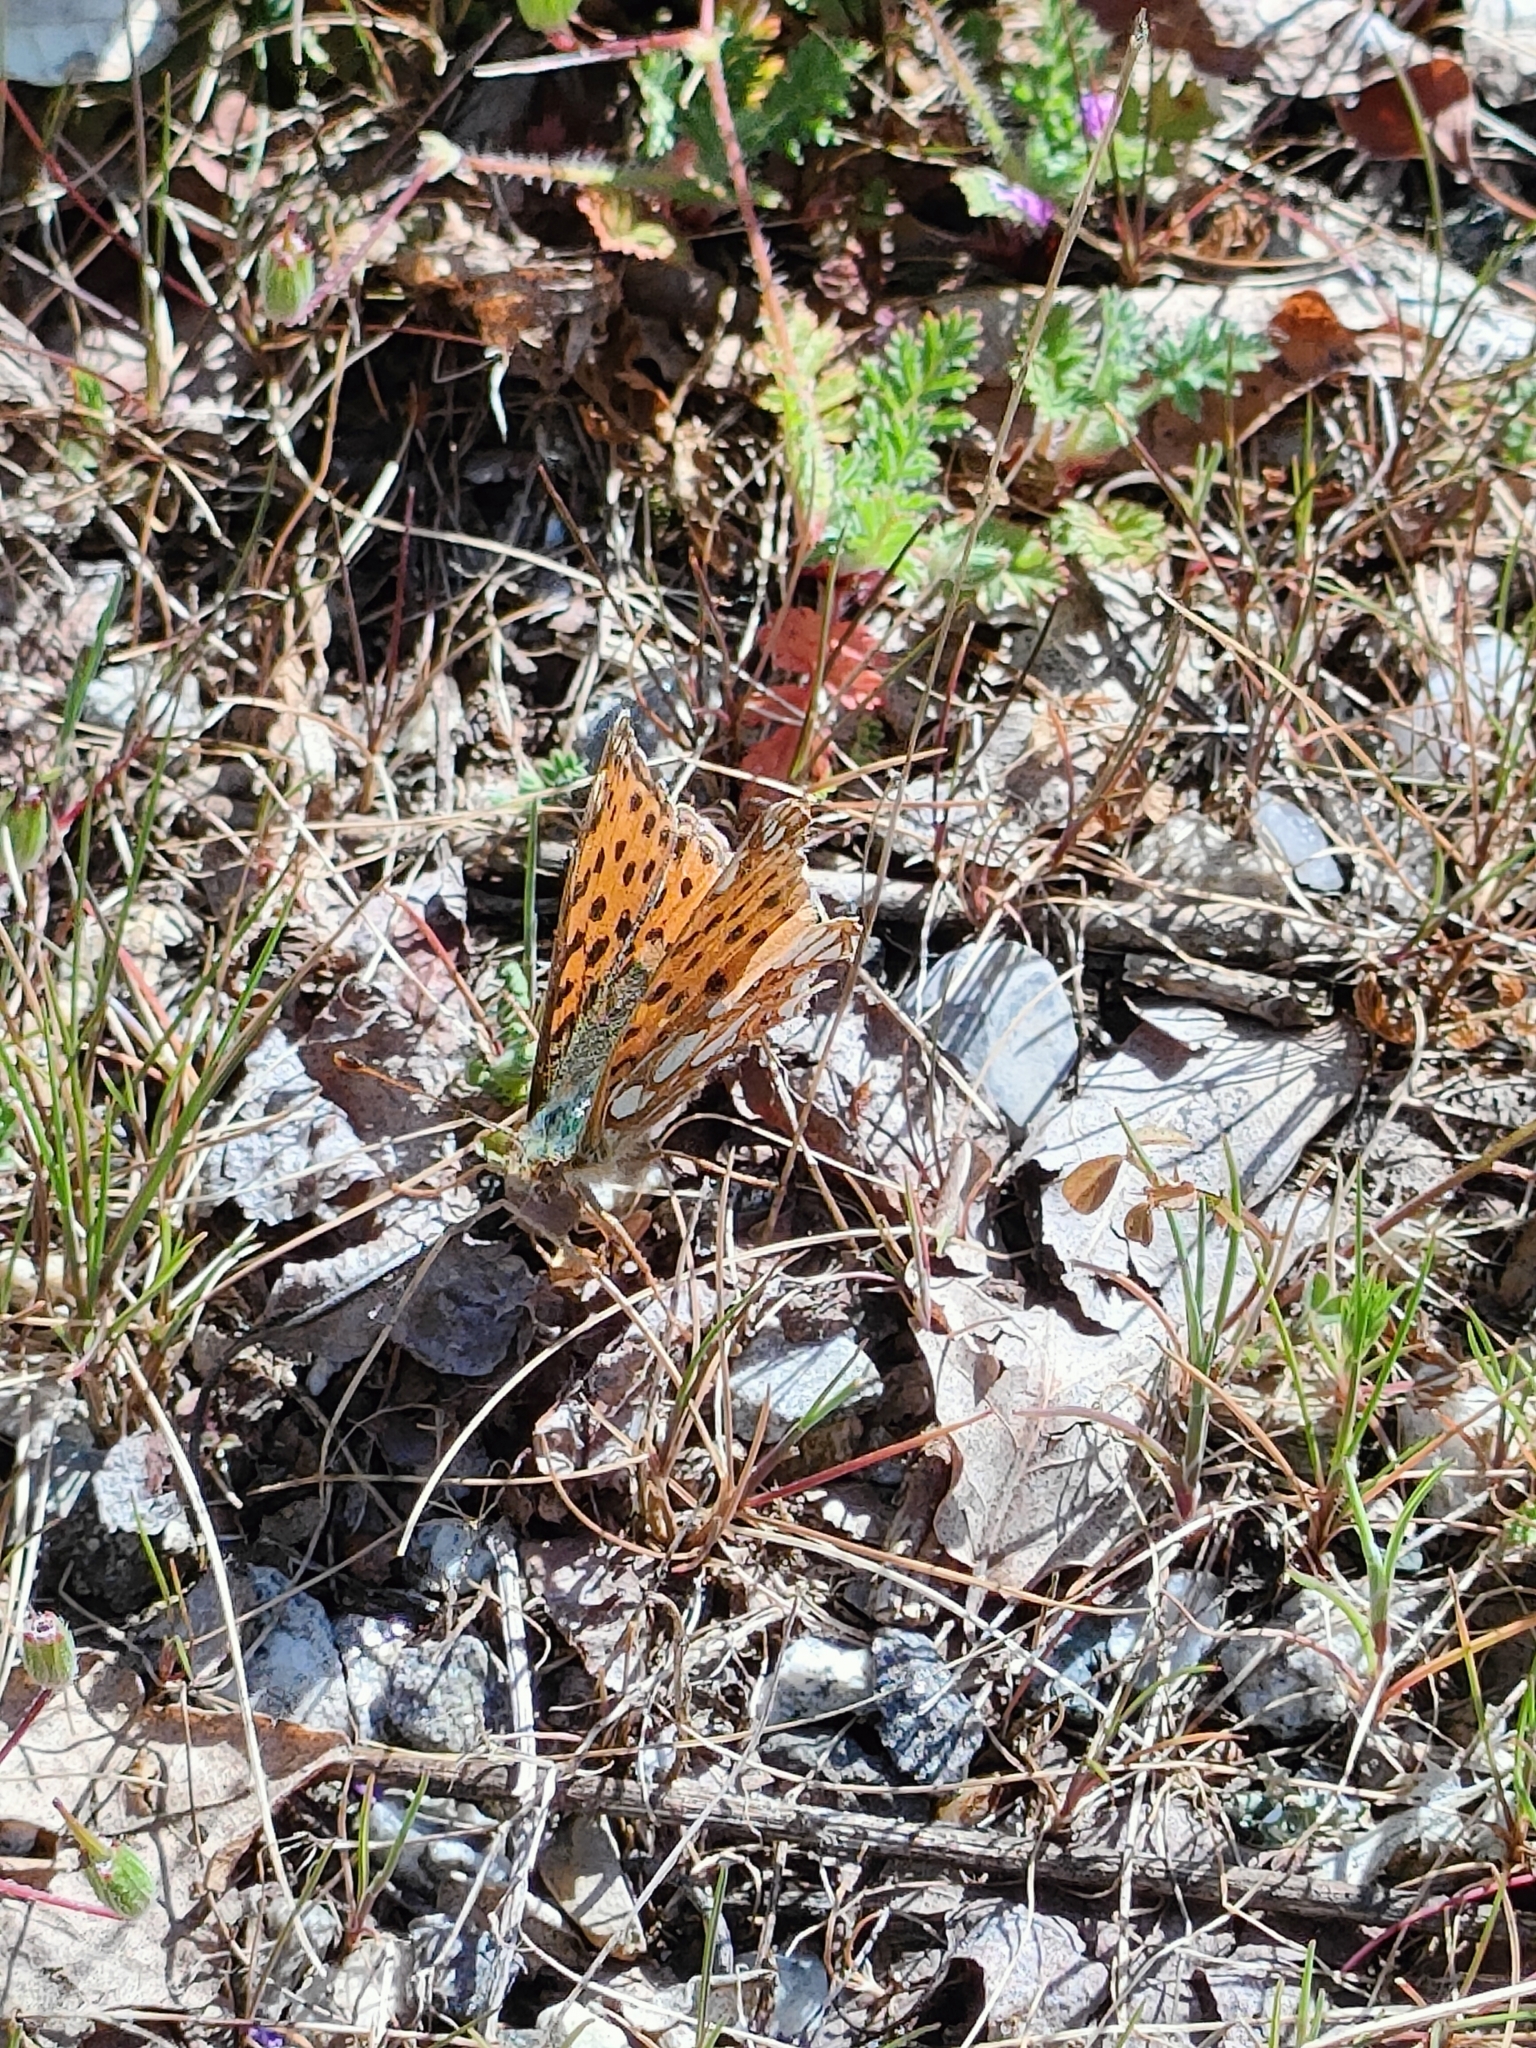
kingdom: Animalia
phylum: Arthropoda
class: Insecta
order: Lepidoptera
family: Nymphalidae
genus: Issoria
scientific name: Issoria lathonia
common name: Queen of spain fritillary
